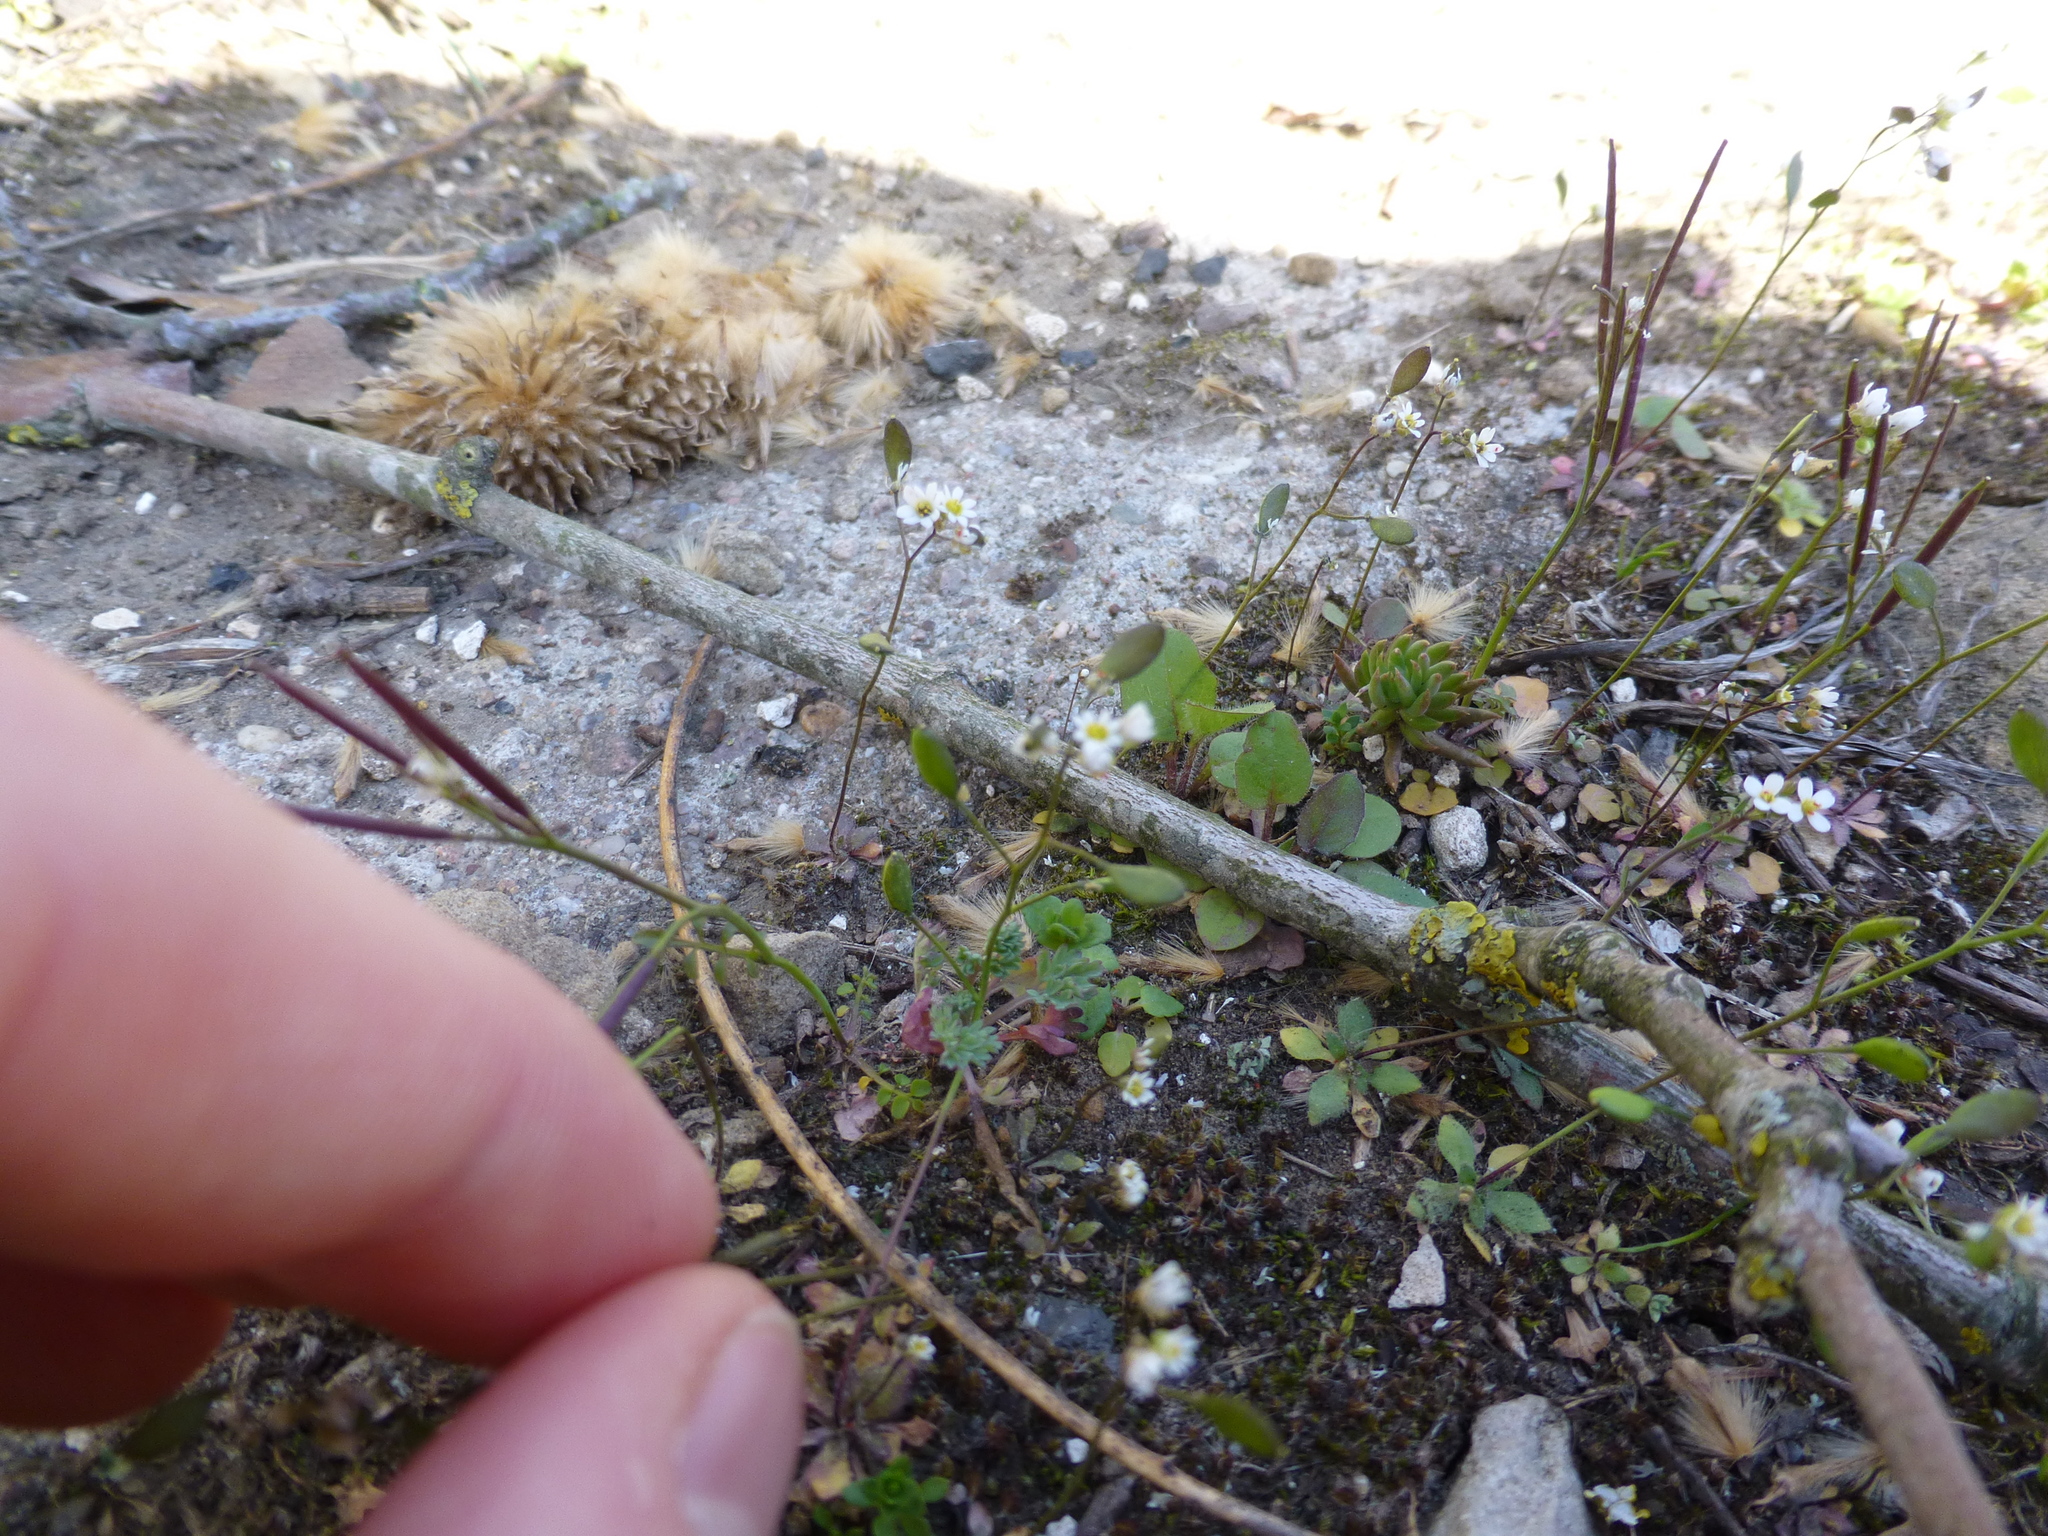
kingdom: Plantae
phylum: Tracheophyta
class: Magnoliopsida
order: Brassicales
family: Brassicaceae
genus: Draba
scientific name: Draba verna
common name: Spring draba
